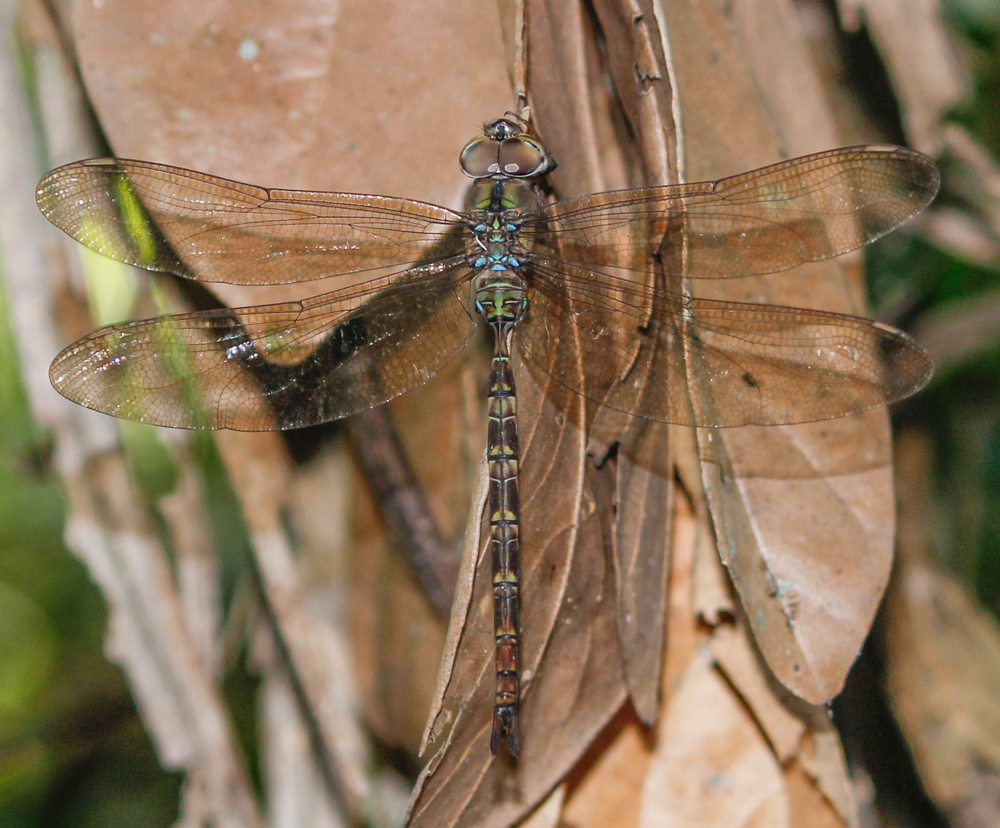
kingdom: Animalia
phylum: Arthropoda
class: Insecta
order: Odonata
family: Aeshnidae
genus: Gynacantha
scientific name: Gynacantha dravida
